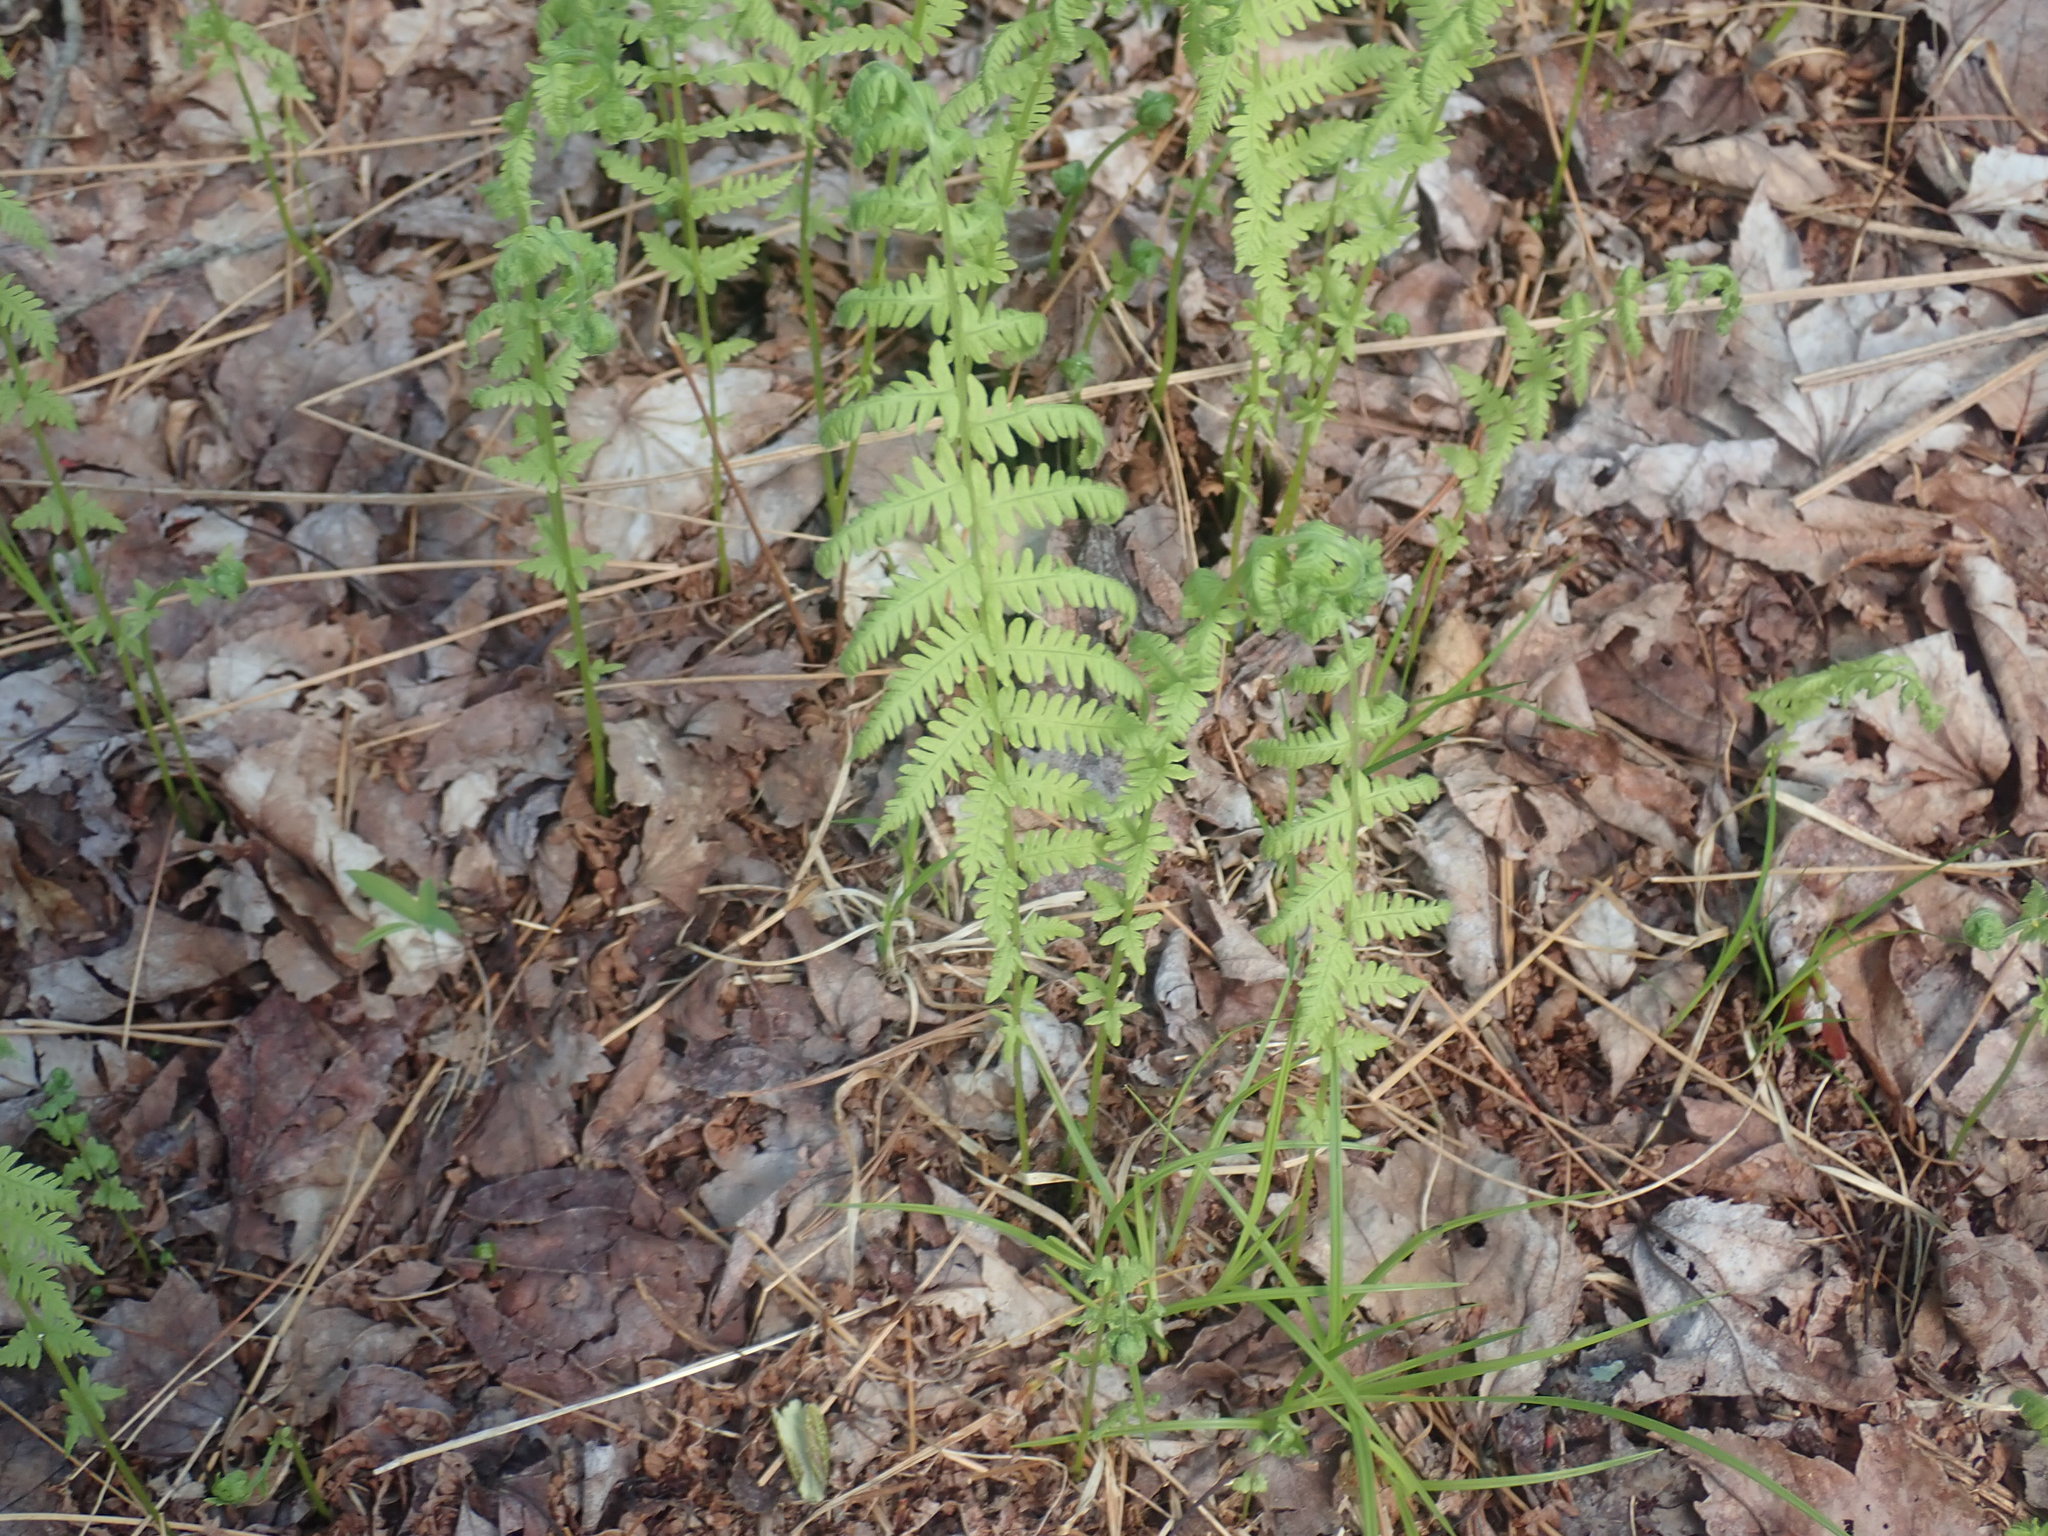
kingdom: Plantae
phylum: Tracheophyta
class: Polypodiopsida
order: Polypodiales
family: Thelypteridaceae
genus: Amauropelta
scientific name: Amauropelta noveboracensis
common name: New york fern
